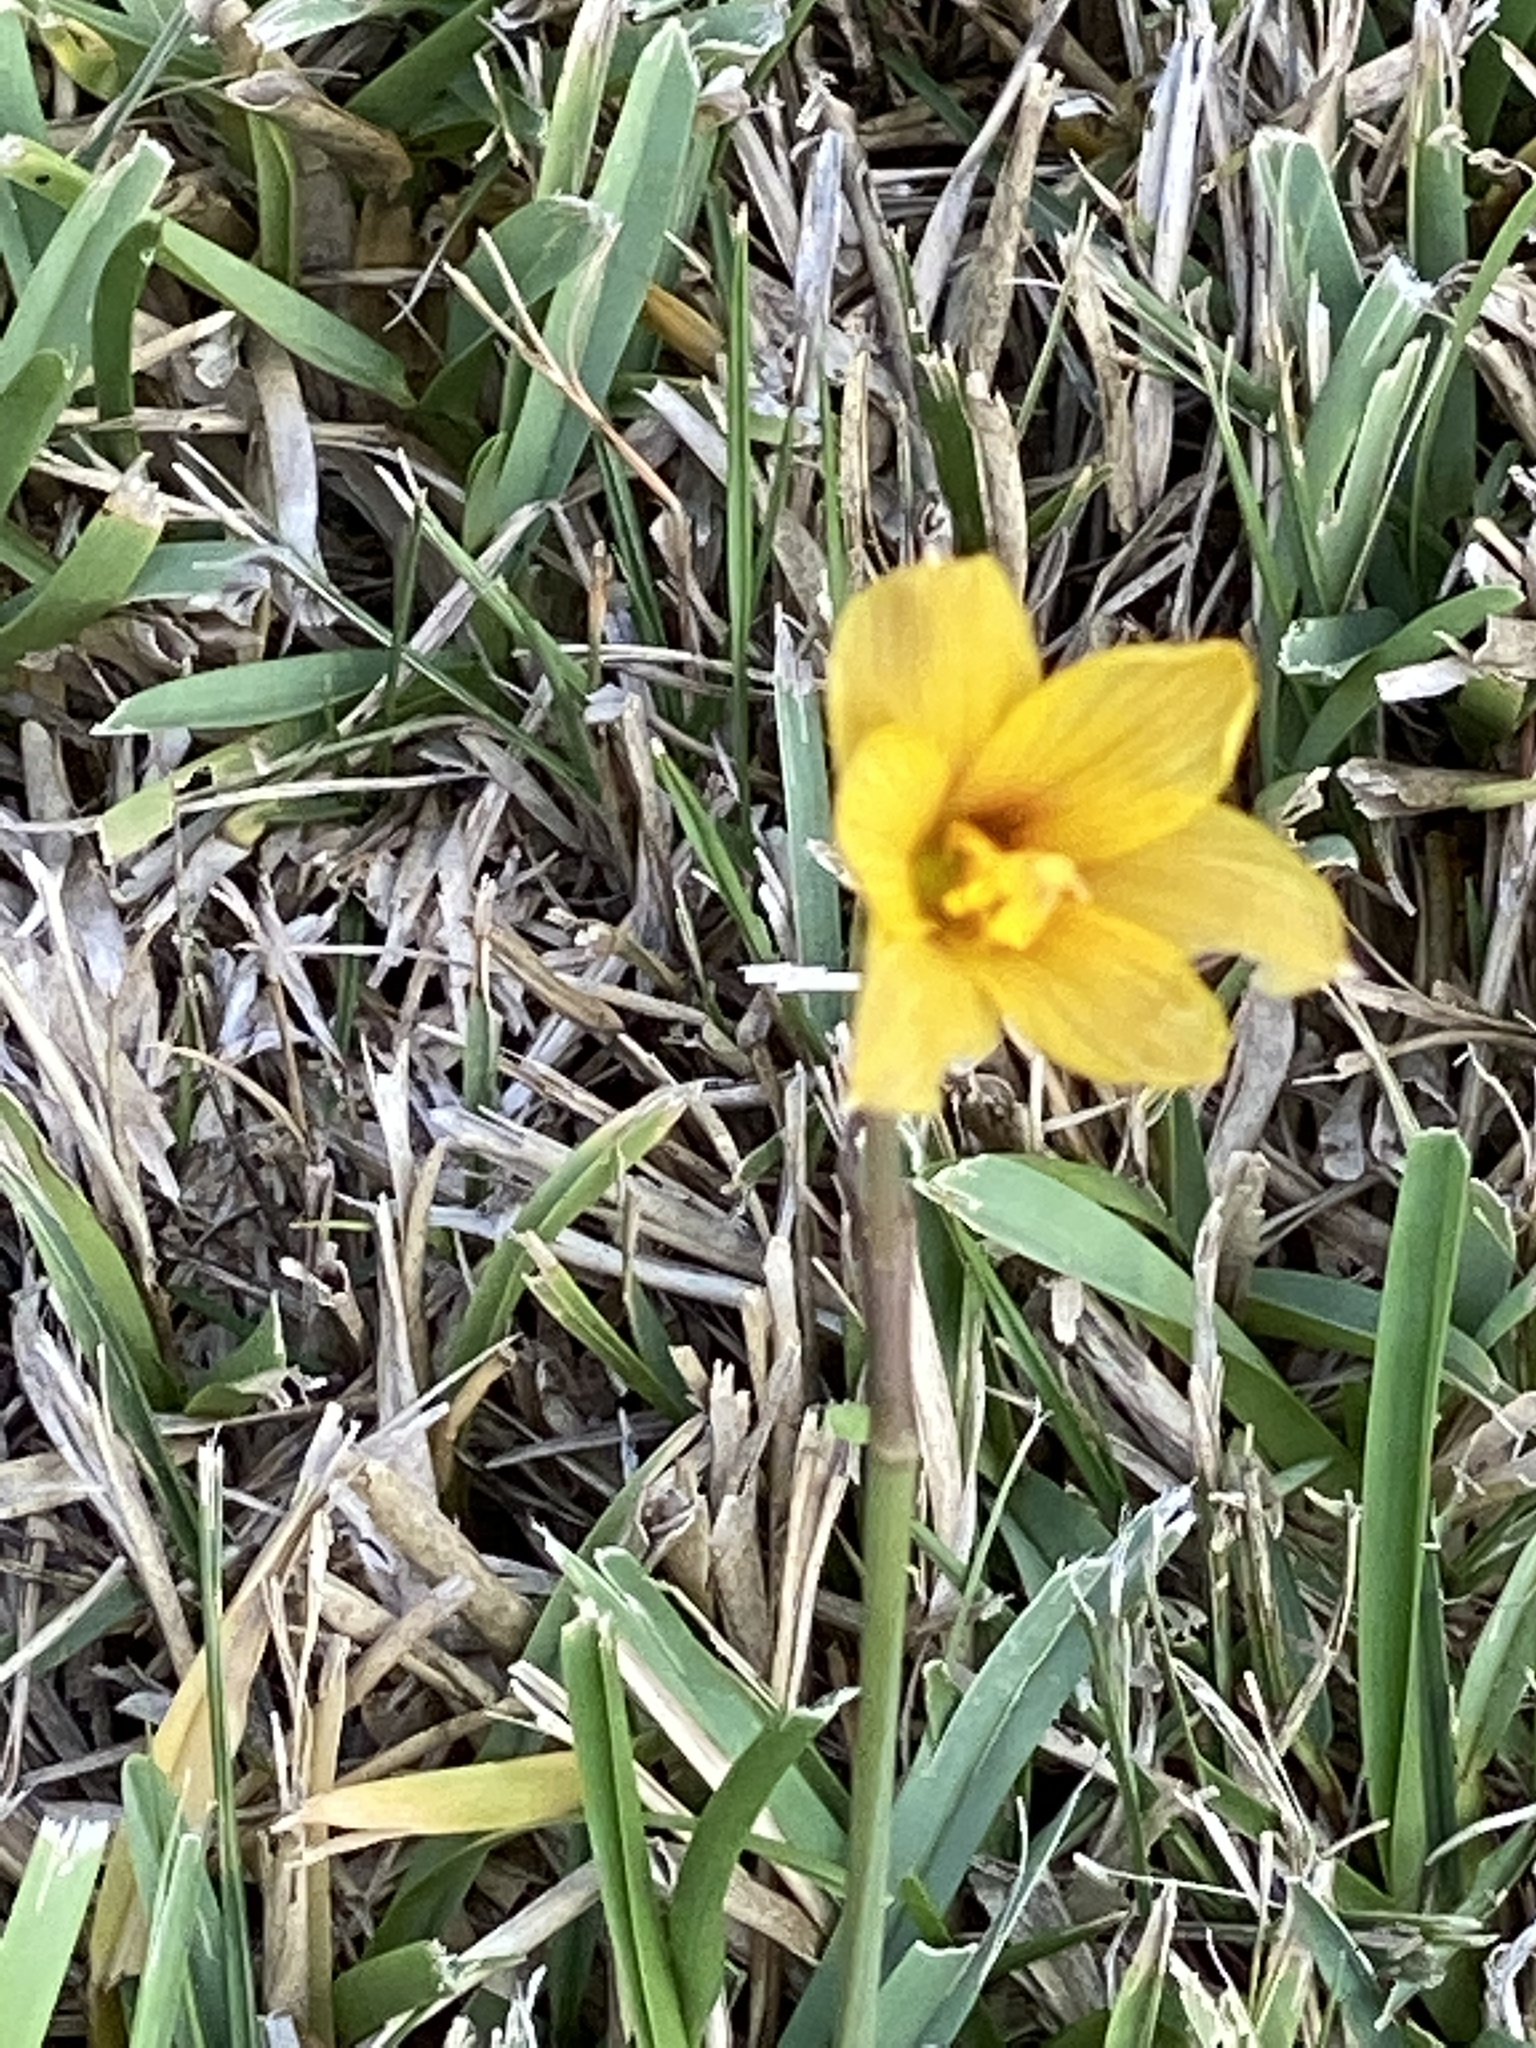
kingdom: Plantae
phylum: Tracheophyta
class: Liliopsida
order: Asparagales
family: Amaryllidaceae
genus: Zephyranthes
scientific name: Zephyranthes tubispatha
